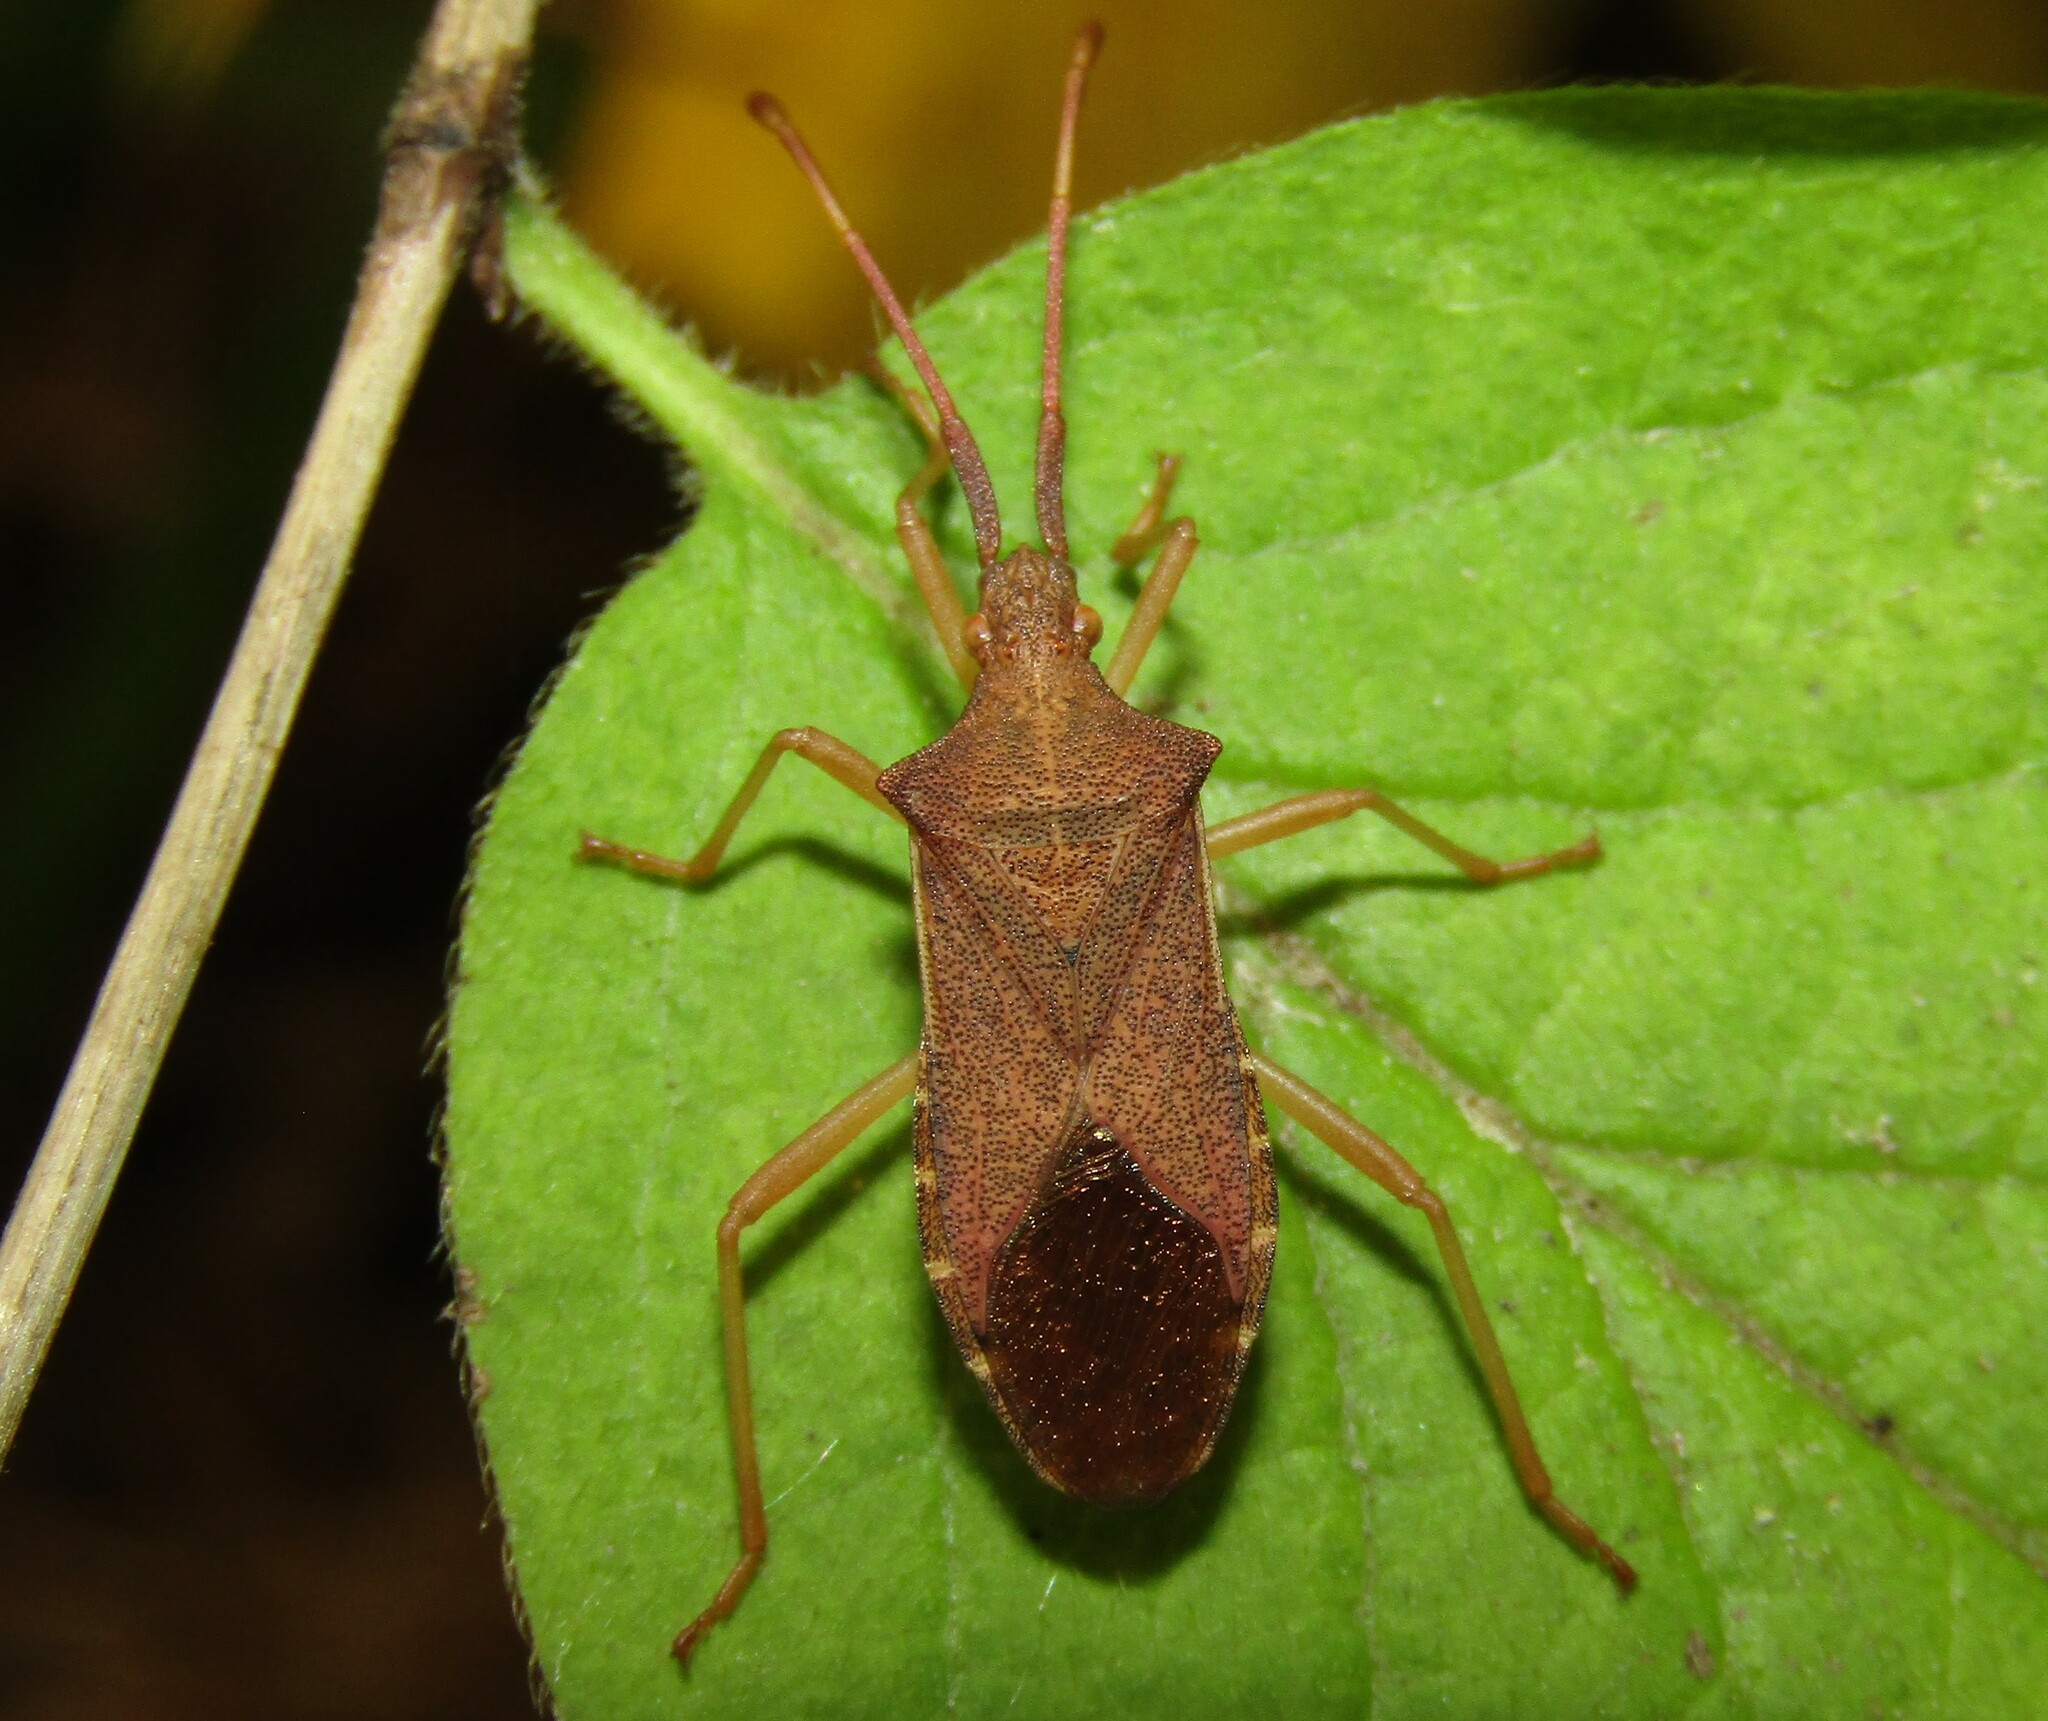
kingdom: Animalia
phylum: Arthropoda
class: Insecta
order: Hemiptera
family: Coreidae
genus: Gonocerus
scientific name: Gonocerus acuteangulatus
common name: Box bug
